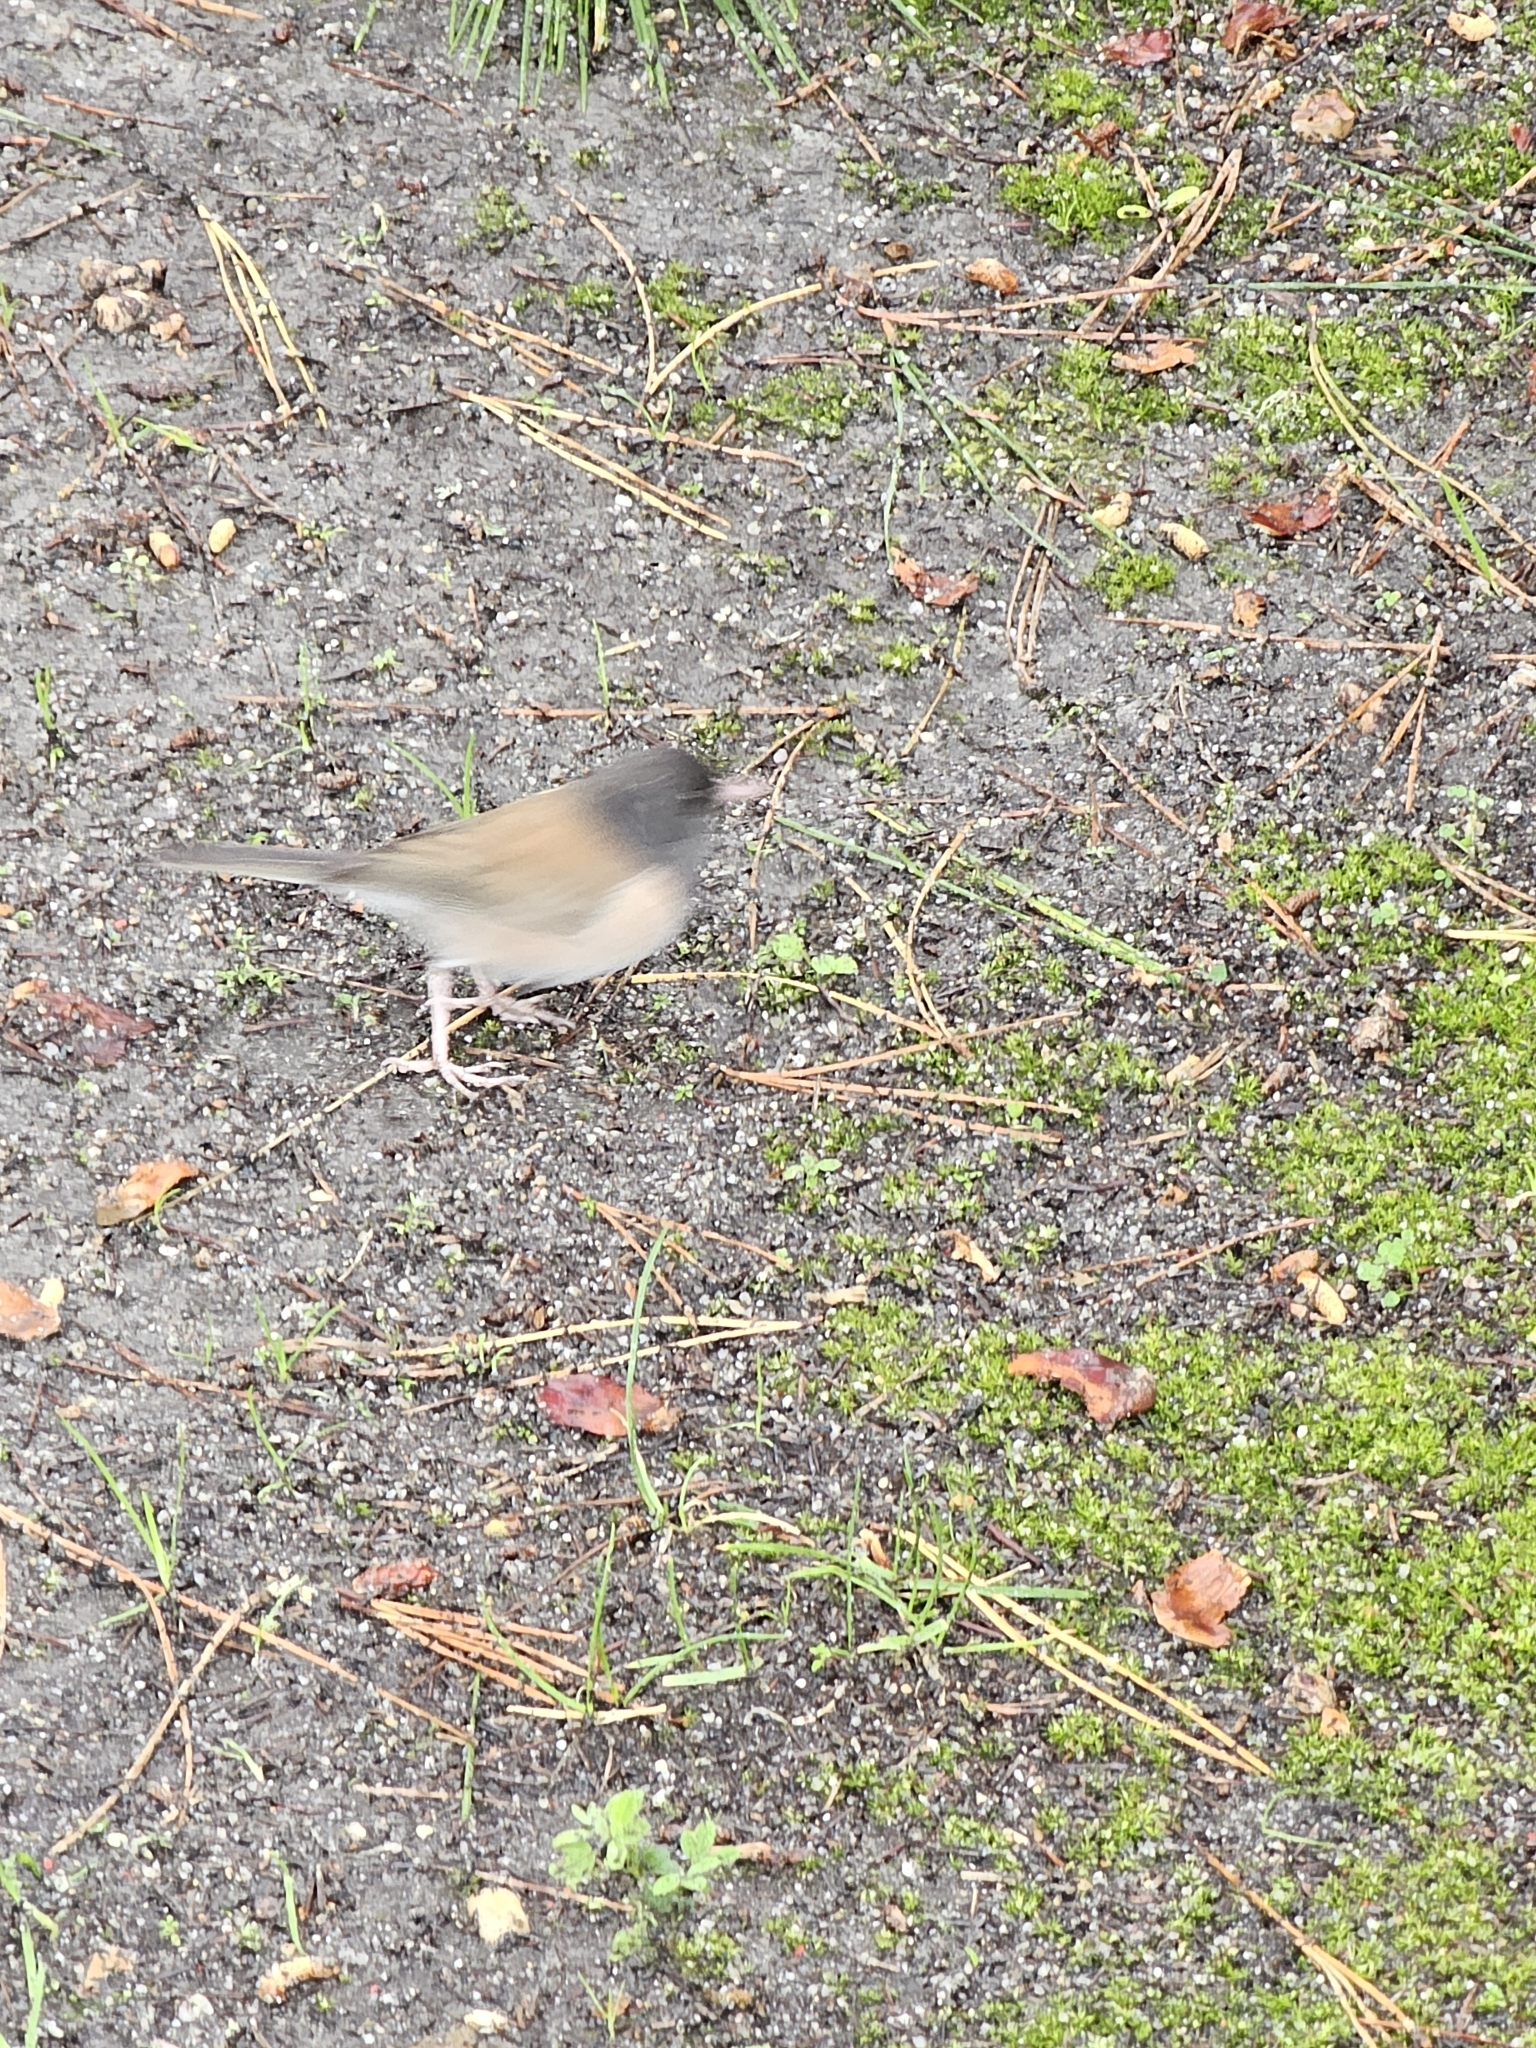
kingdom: Animalia
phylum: Chordata
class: Aves
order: Passeriformes
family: Passerellidae
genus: Junco
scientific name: Junco hyemalis
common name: Dark-eyed junco
